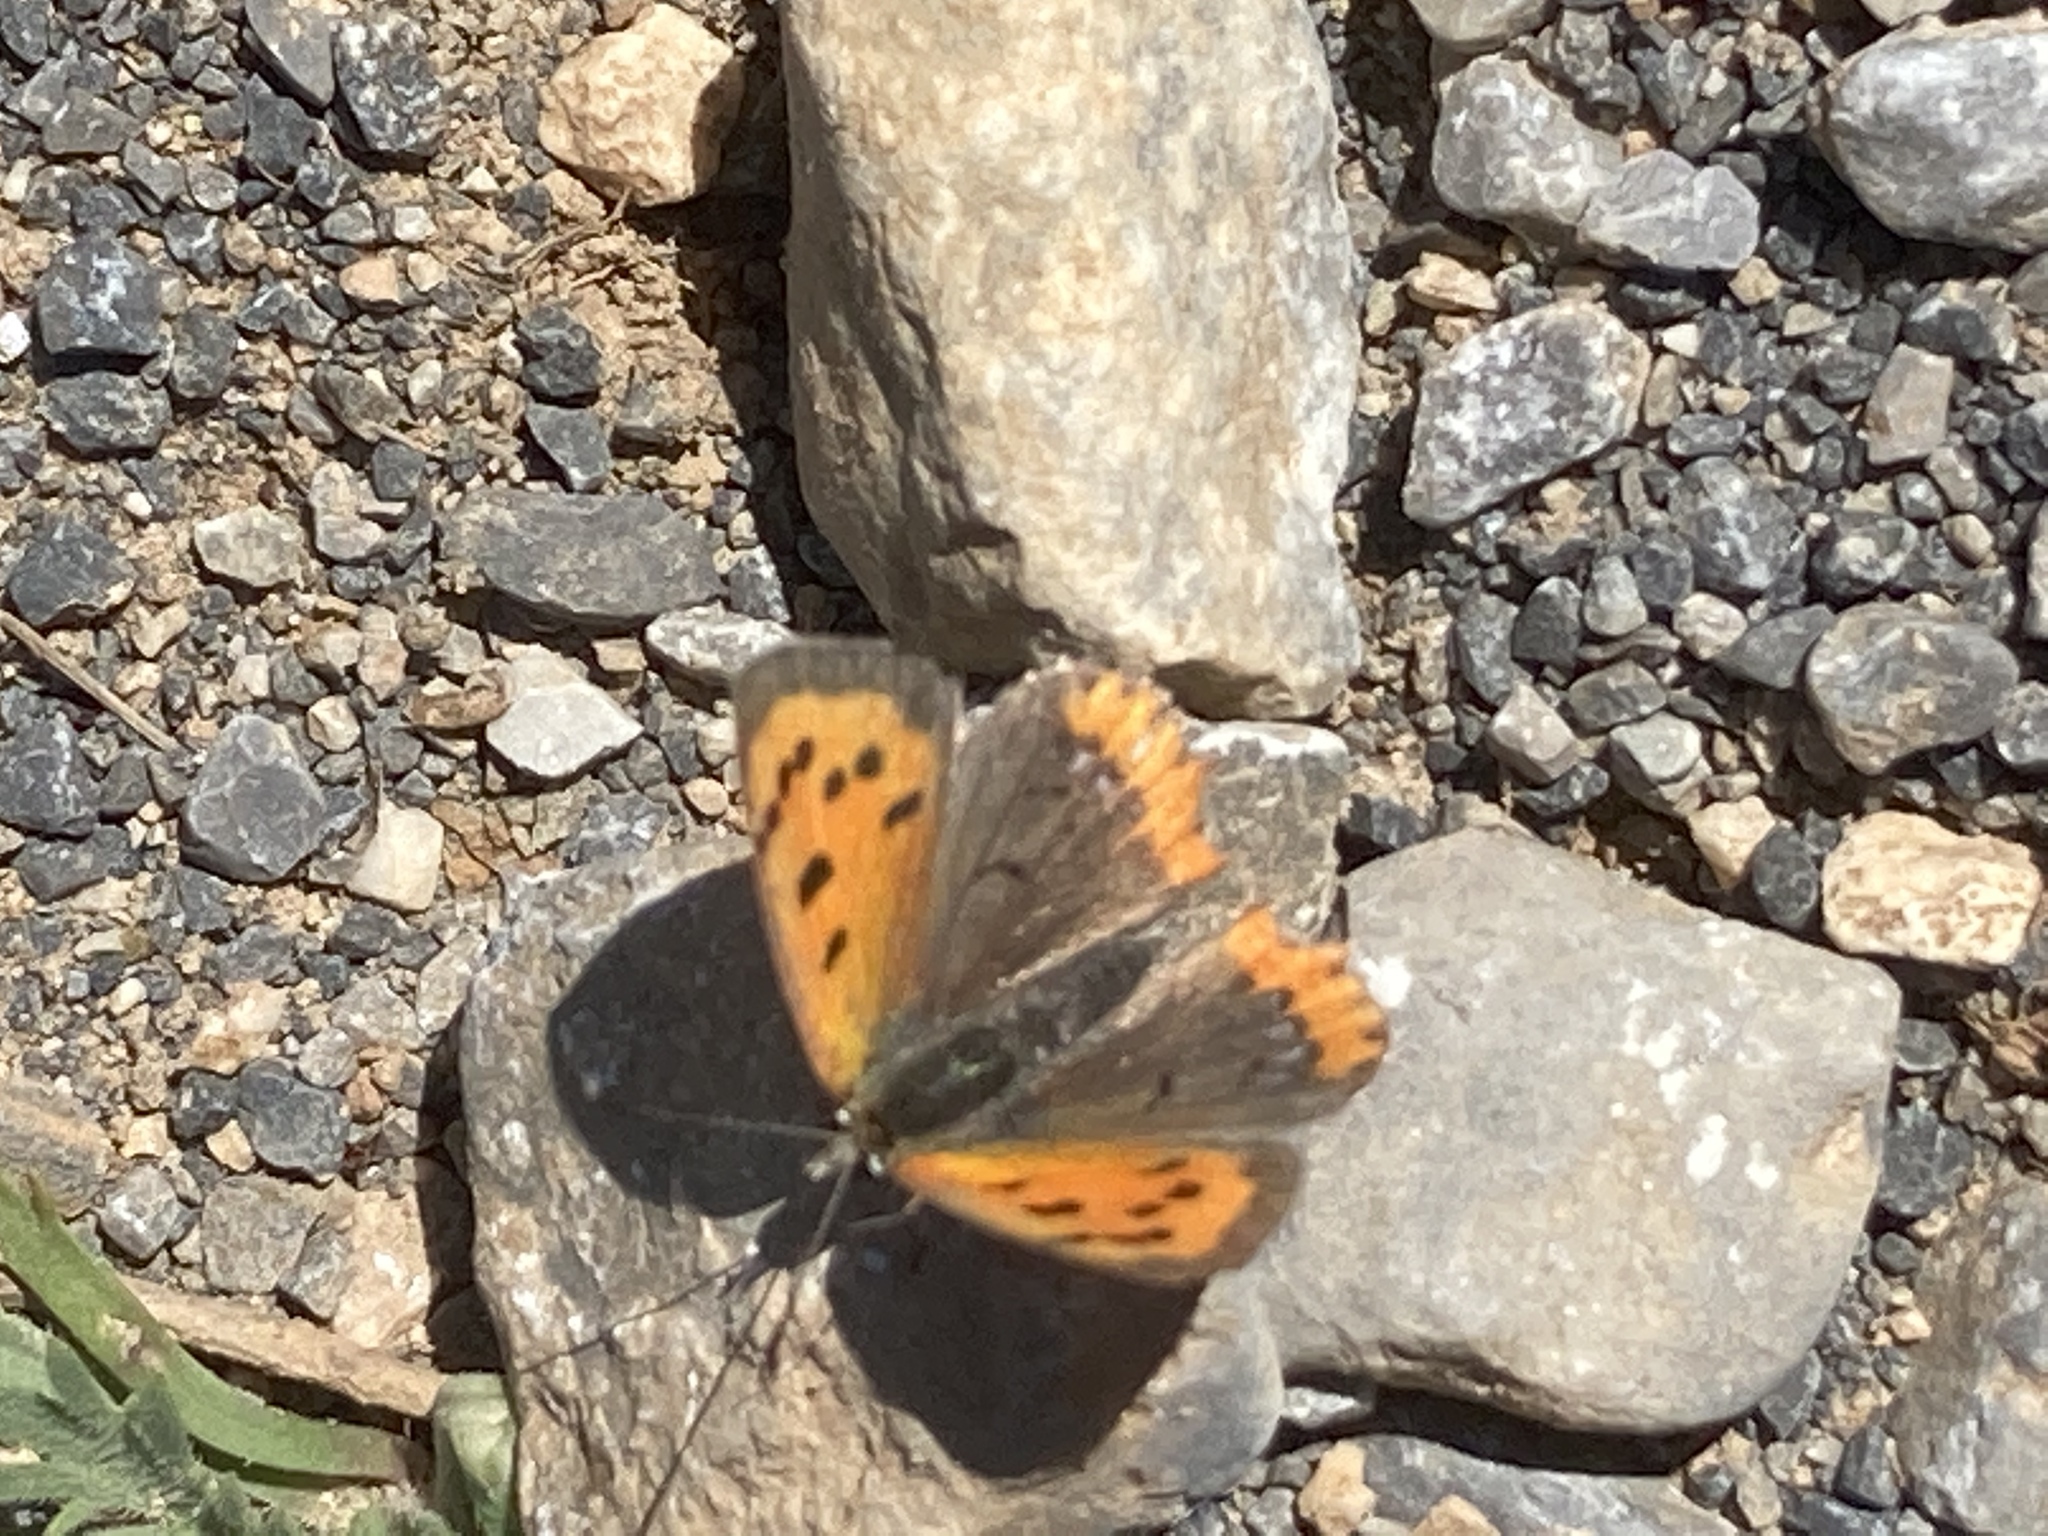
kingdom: Animalia
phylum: Arthropoda
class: Insecta
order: Lepidoptera
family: Lycaenidae
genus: Lycaena
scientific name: Lycaena phlaeas
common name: Small copper
